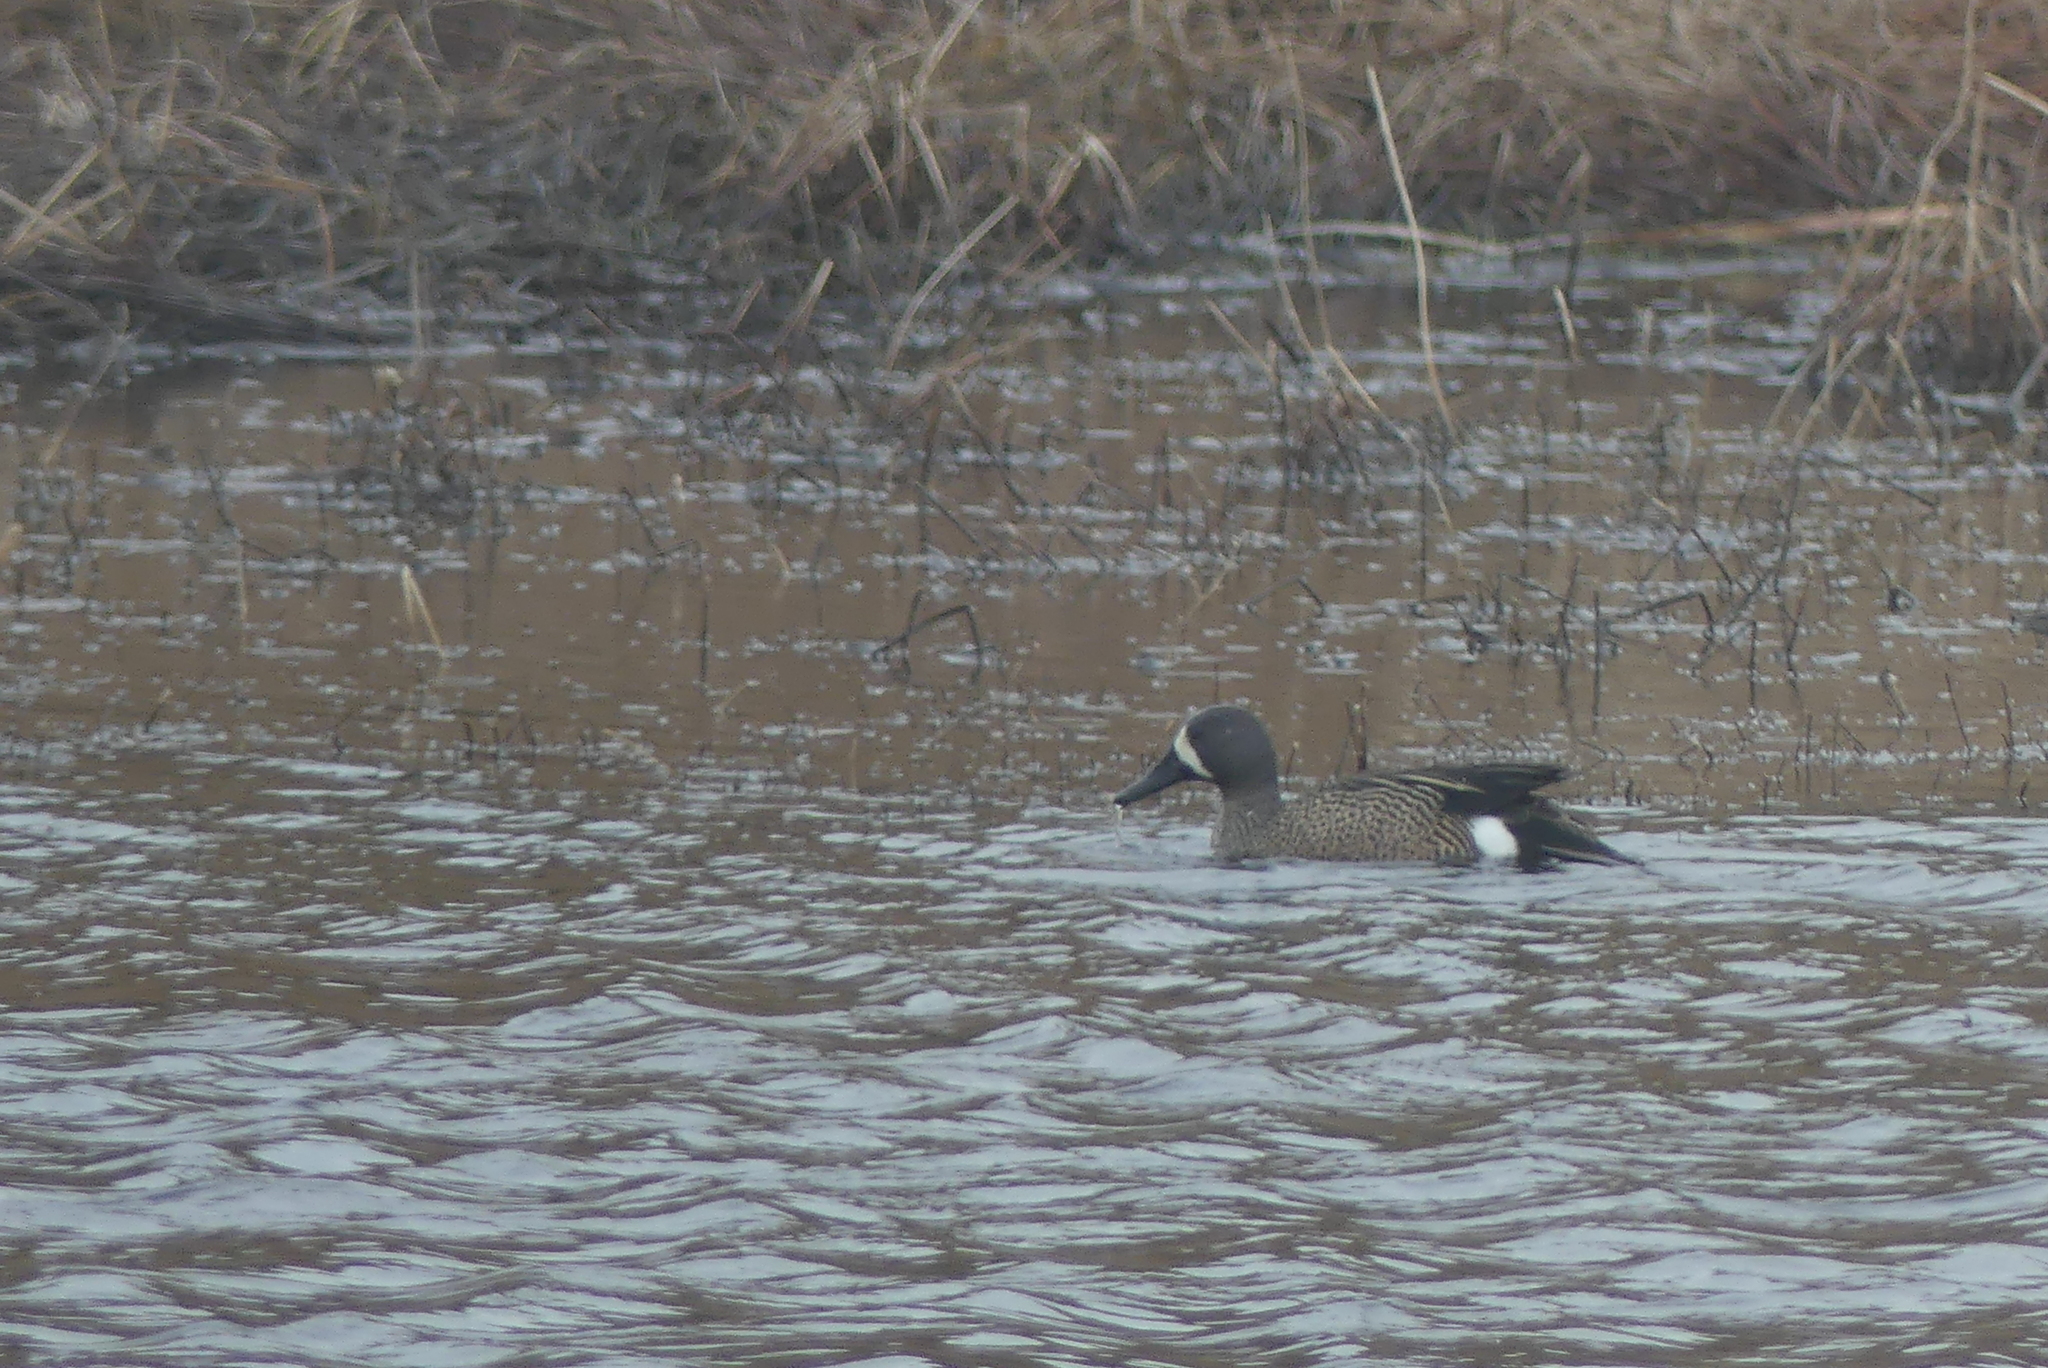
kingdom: Animalia
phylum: Chordata
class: Aves
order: Anseriformes
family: Anatidae
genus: Spatula
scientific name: Spatula discors
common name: Blue-winged teal
